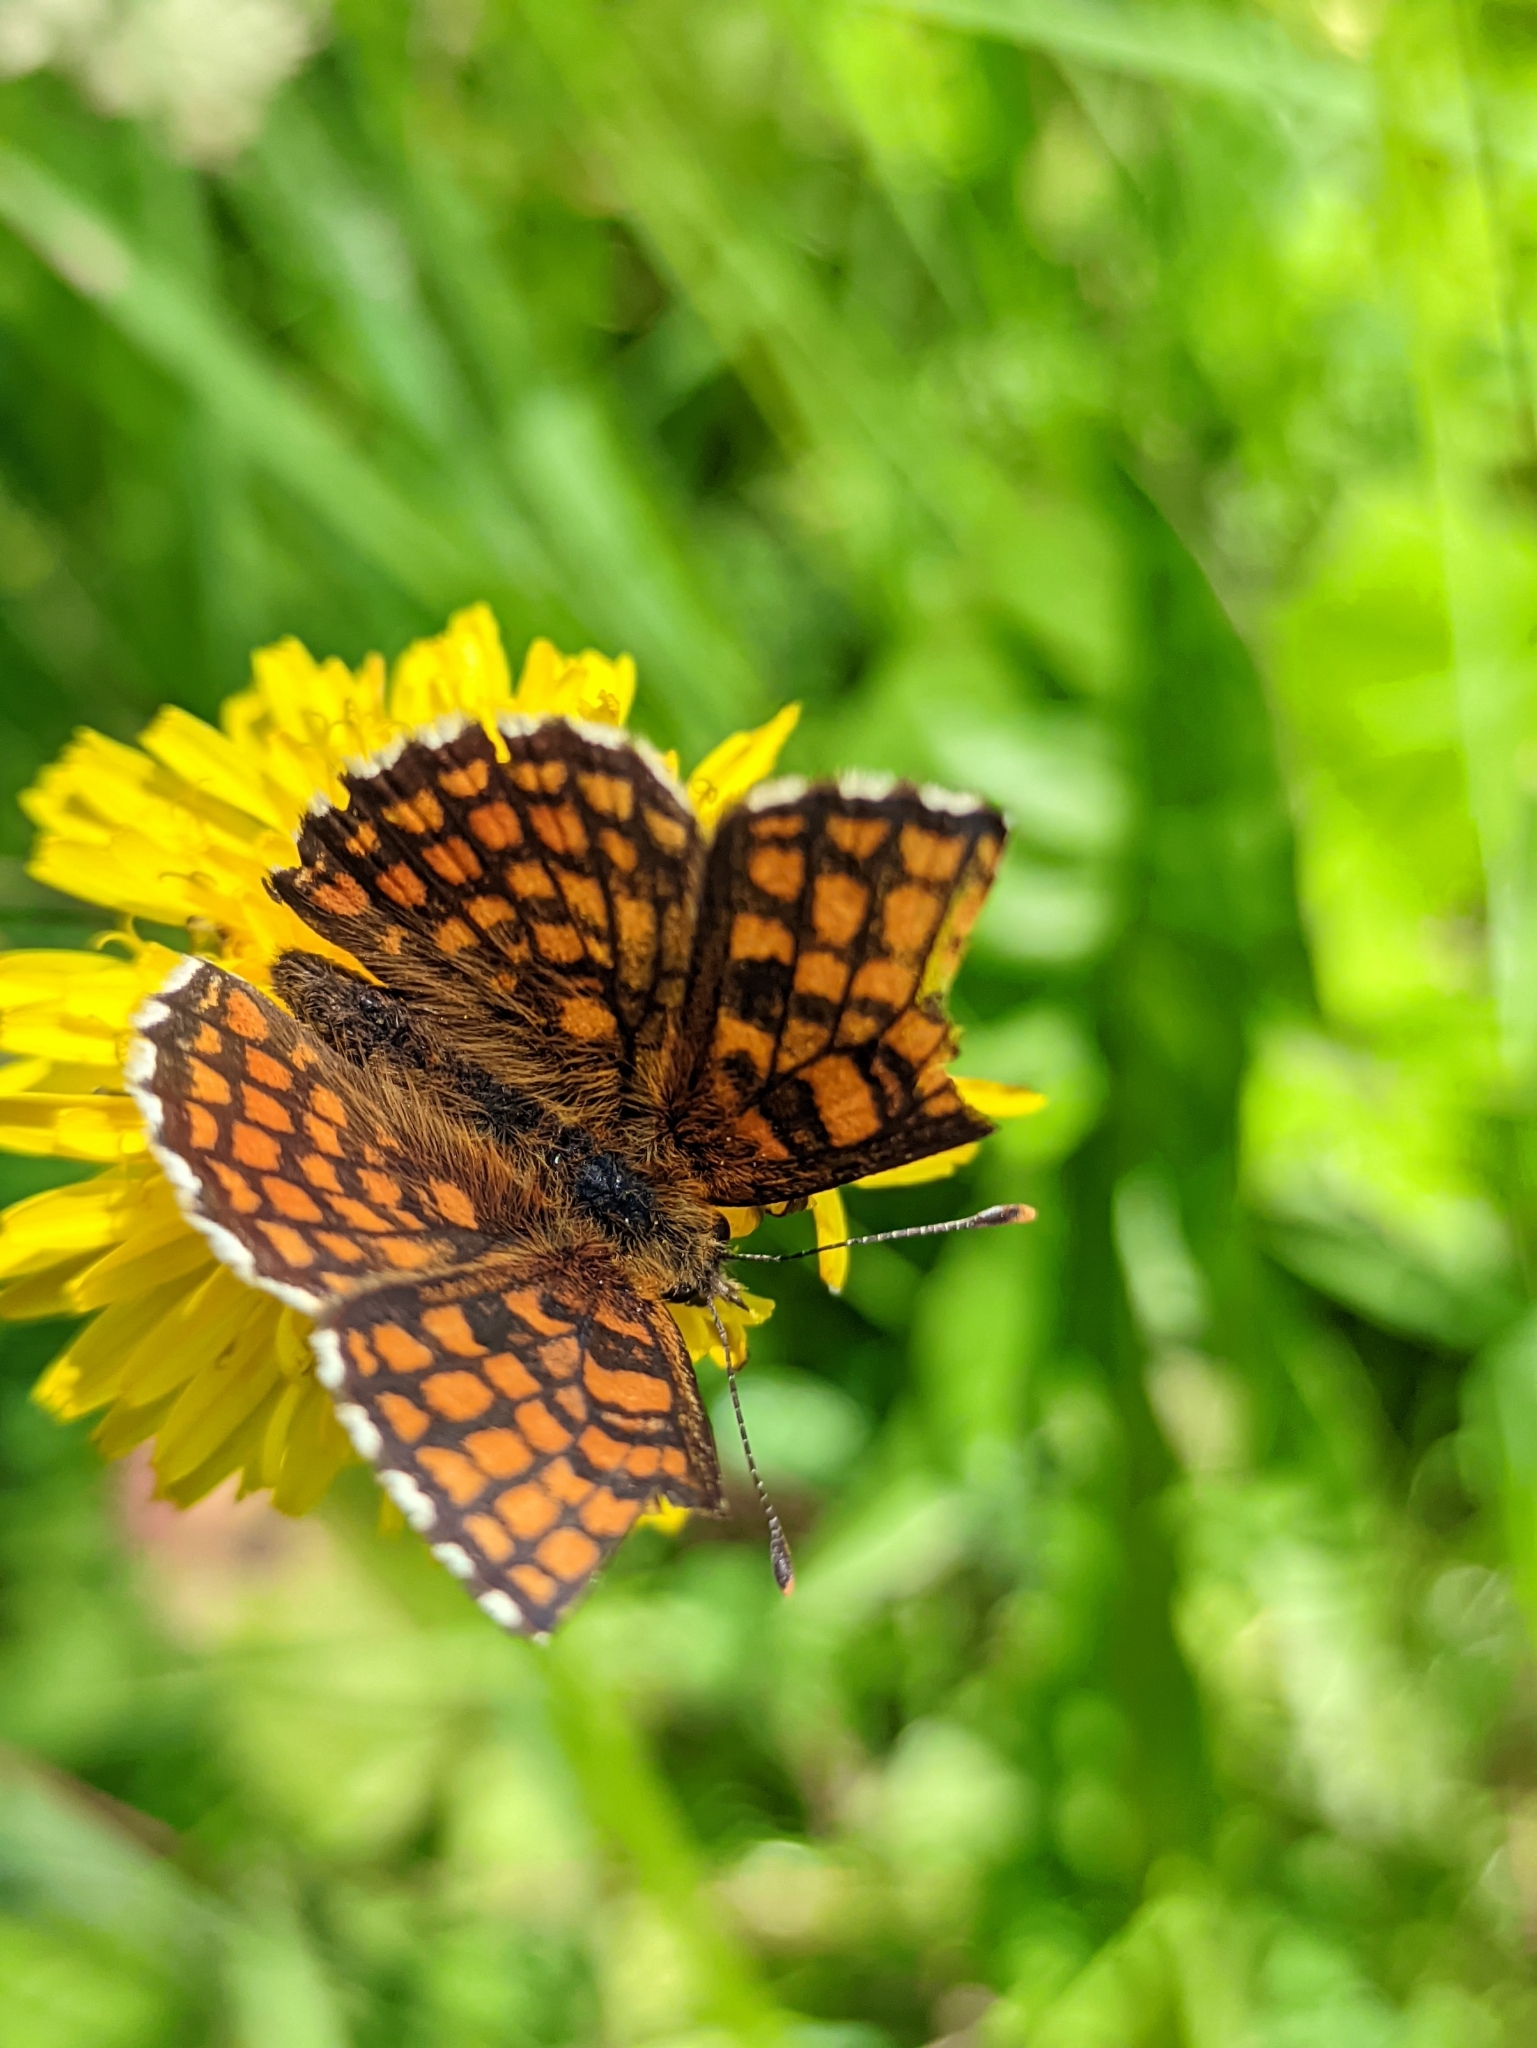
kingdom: Animalia
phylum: Arthropoda
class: Insecta
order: Lepidoptera
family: Nymphalidae
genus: Melitaea
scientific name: Melitaea athalia
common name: Heath fritillary
